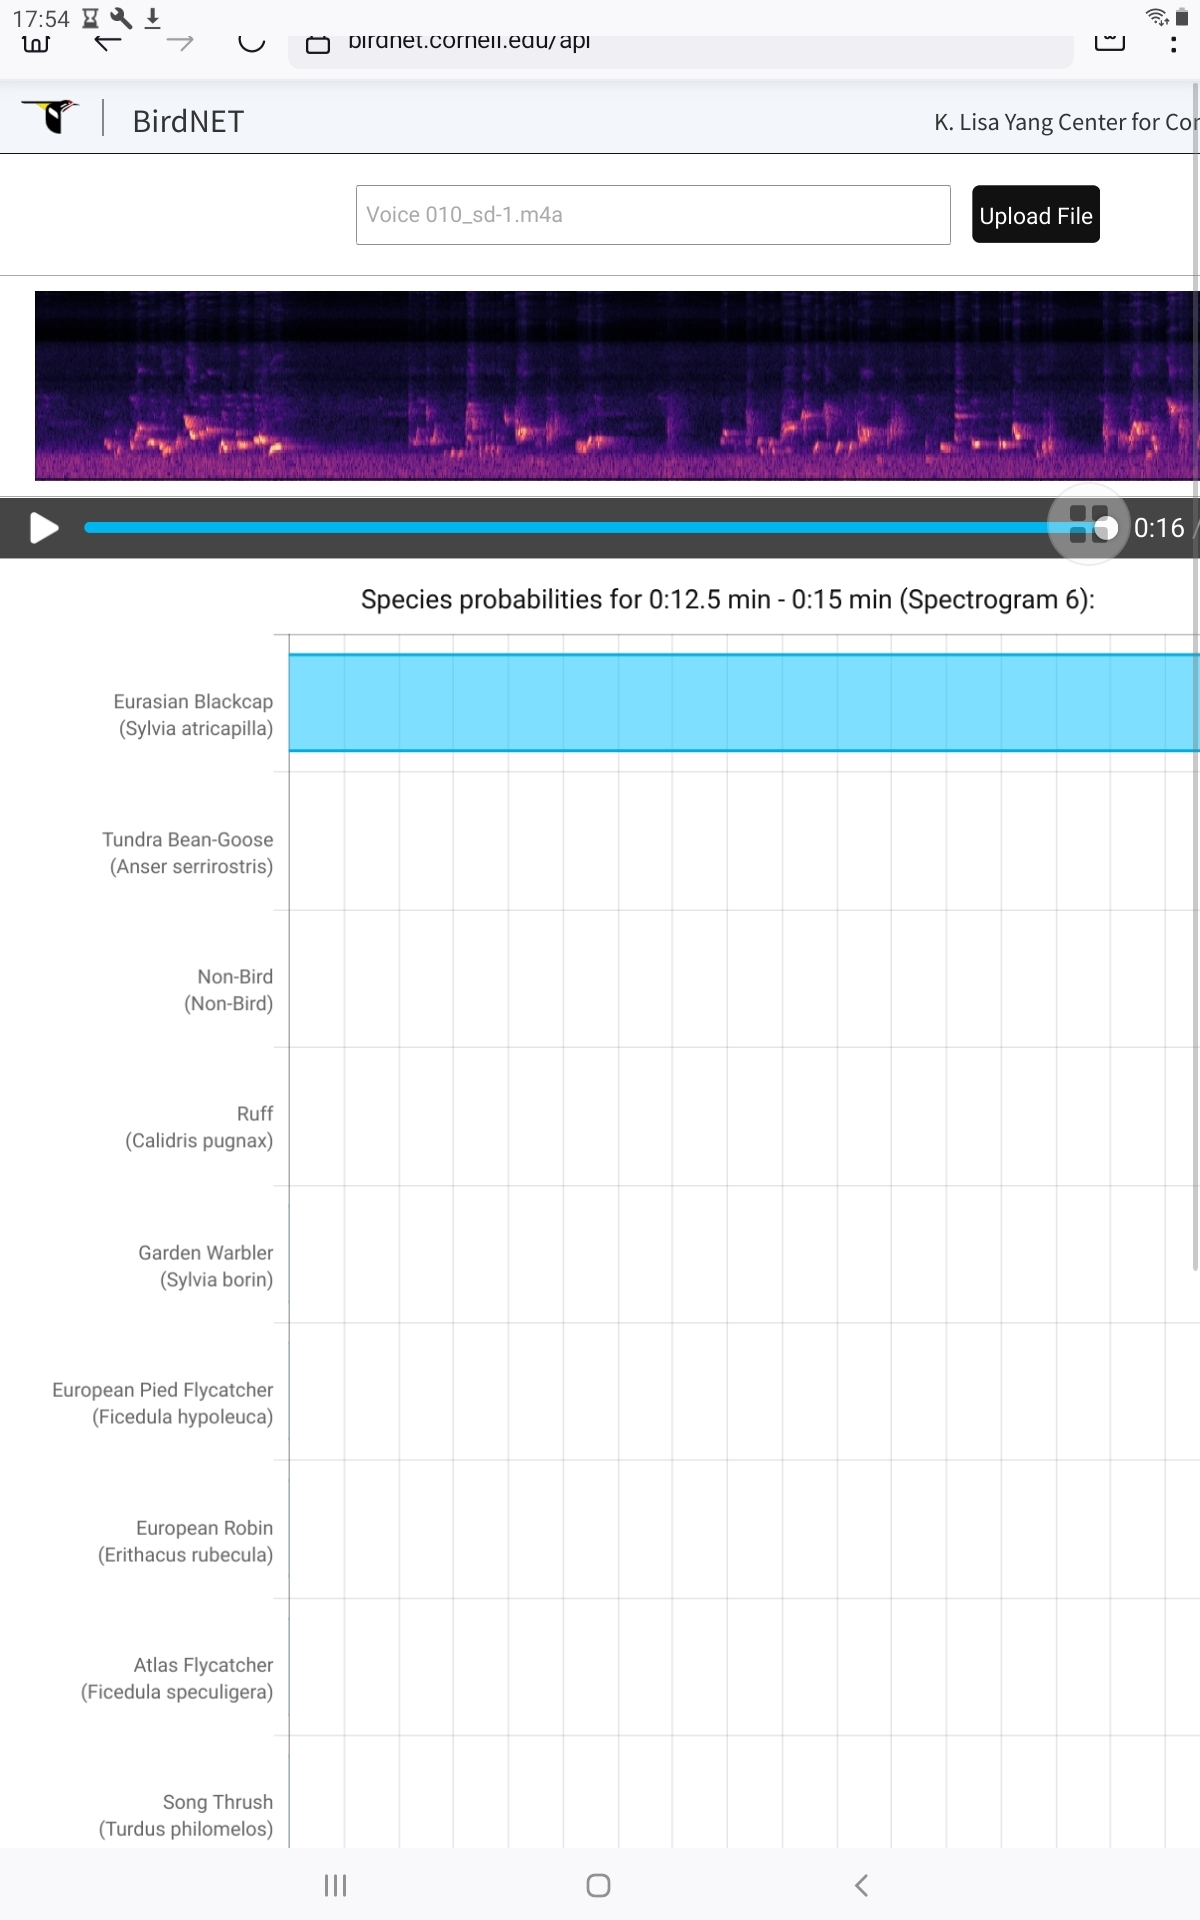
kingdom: Animalia
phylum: Chordata
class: Aves
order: Passeriformes
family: Sylviidae
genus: Sylvia
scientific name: Sylvia atricapilla
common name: Eurasian blackcap
